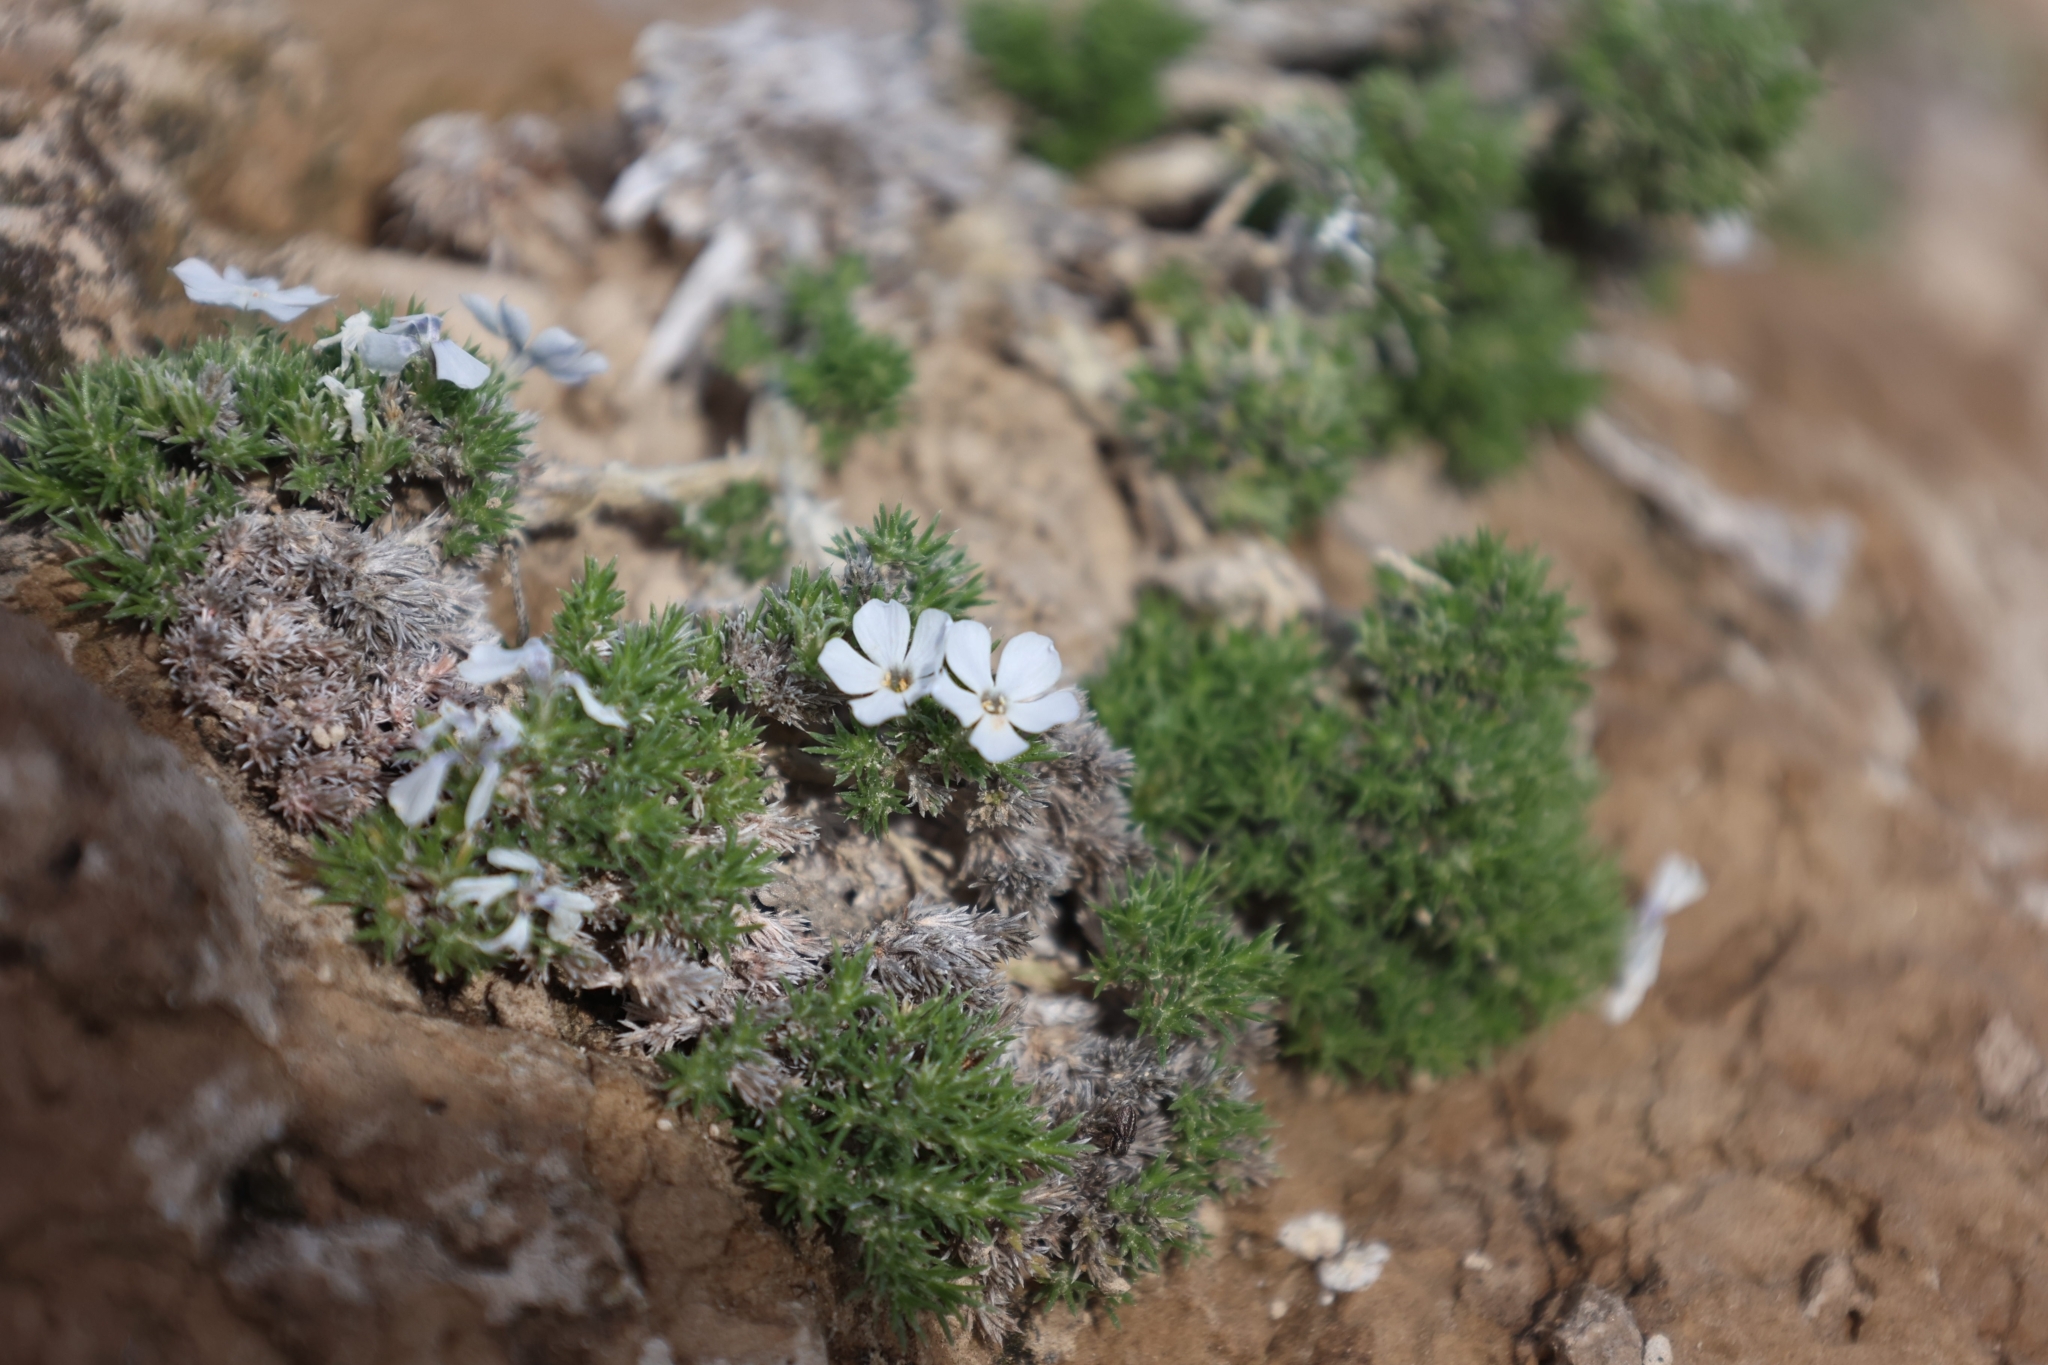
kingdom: Plantae
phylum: Tracheophyta
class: Magnoliopsida
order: Ericales
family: Polemoniaceae
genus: Phlox
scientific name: Phlox hoodii
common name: Moss phlox
